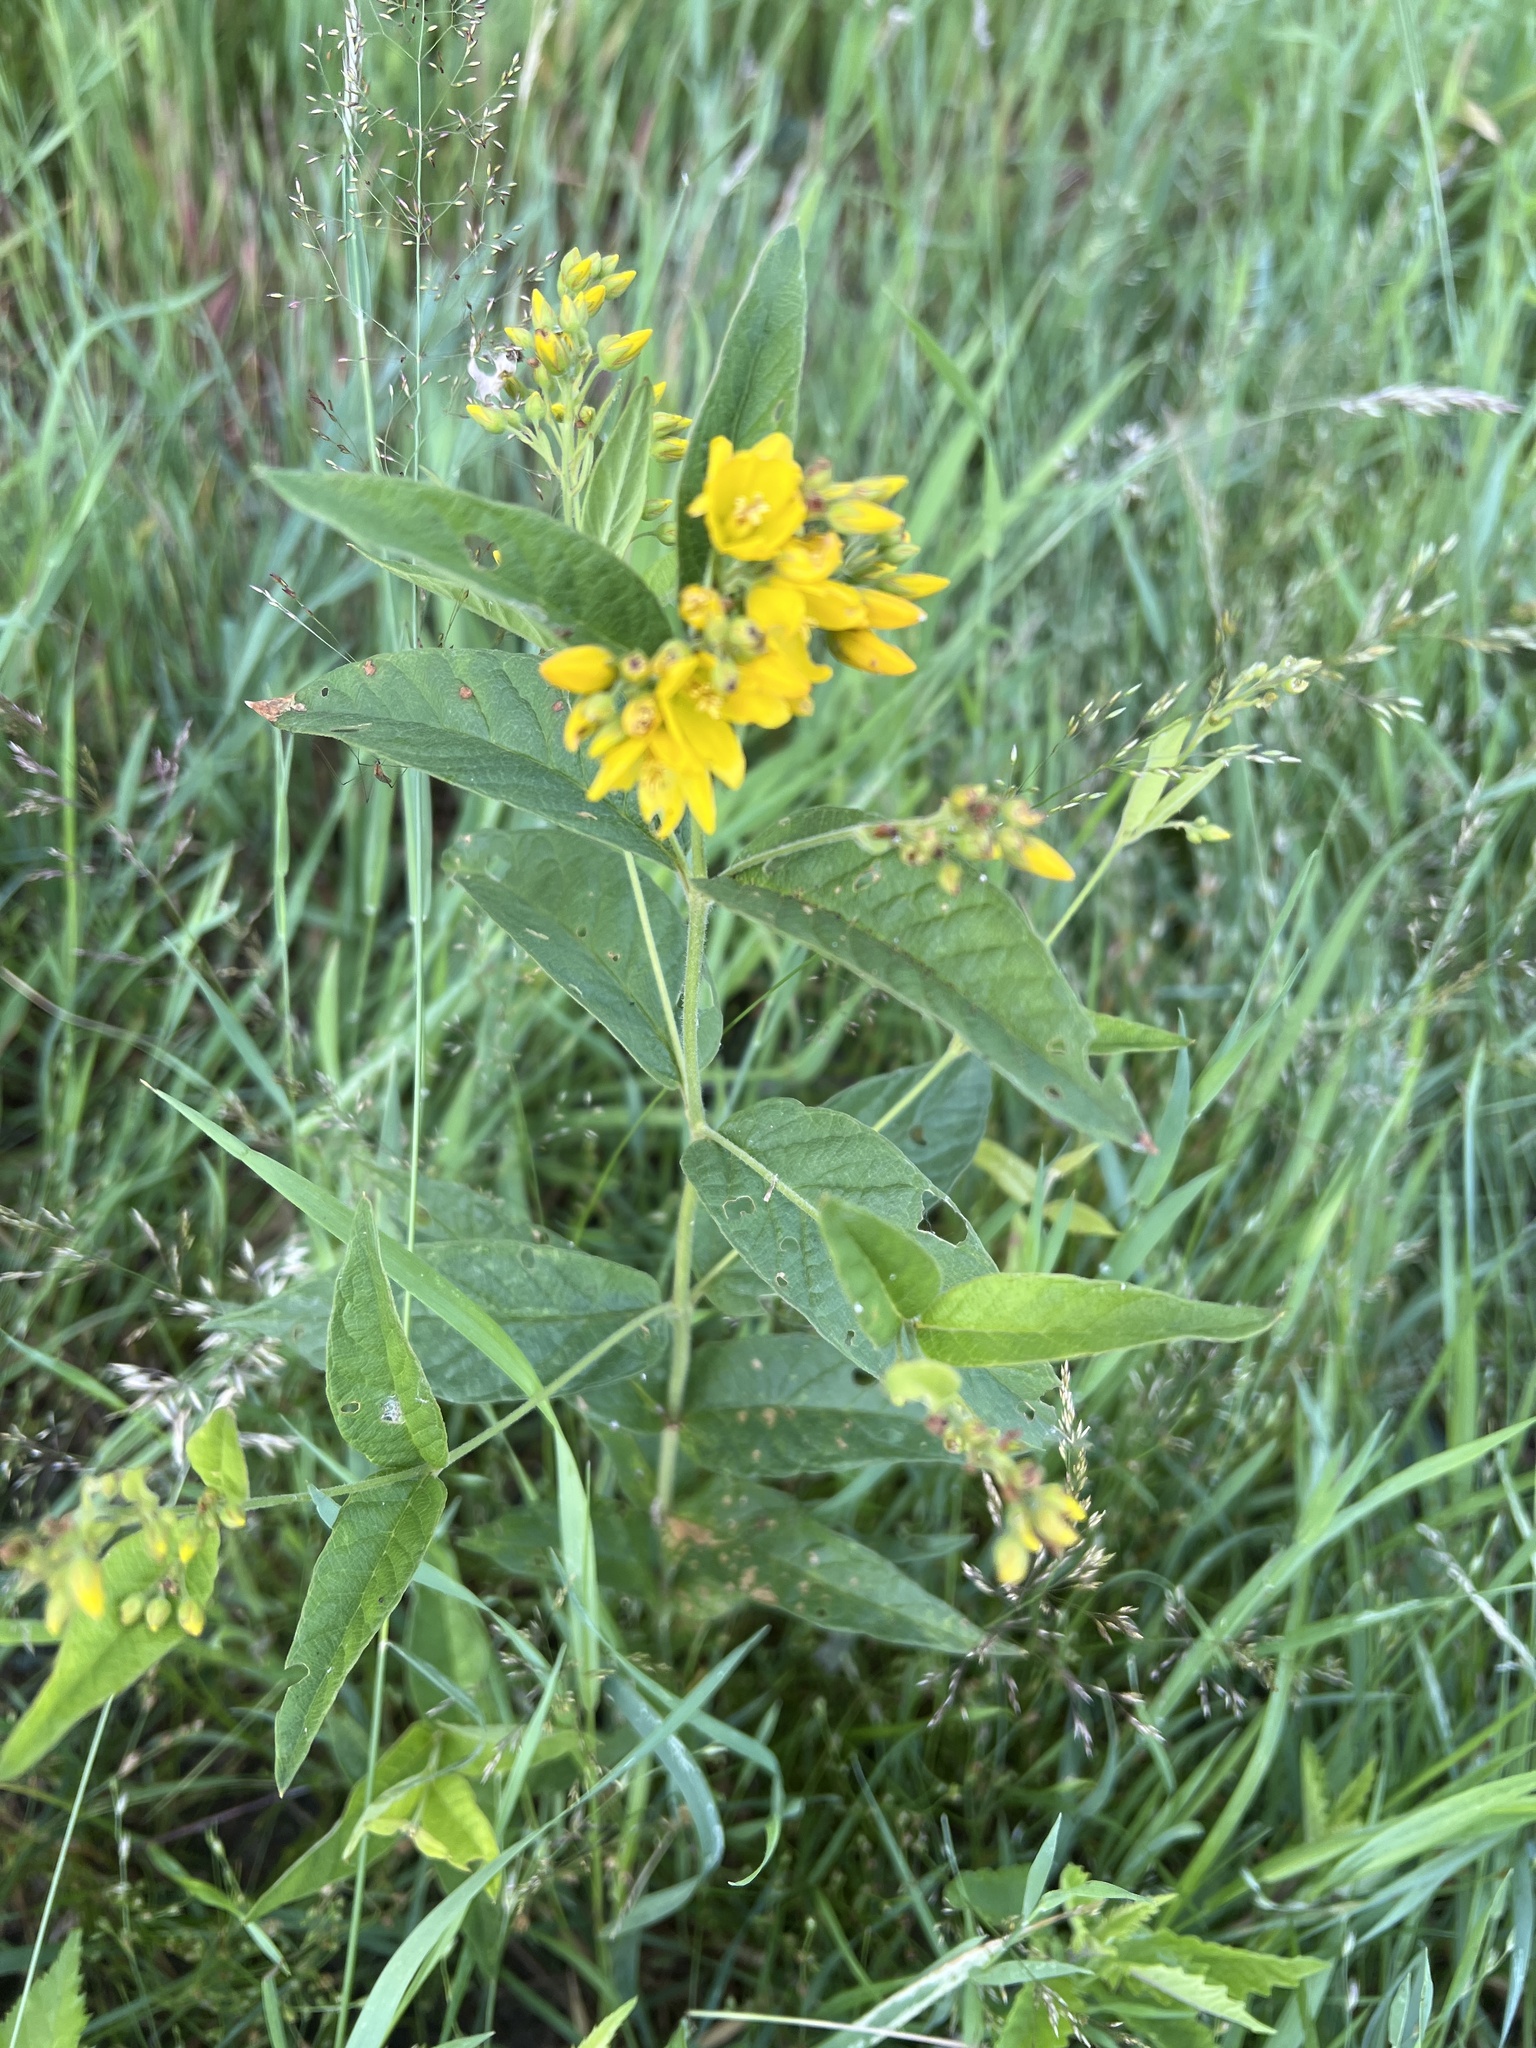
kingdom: Plantae
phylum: Tracheophyta
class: Magnoliopsida
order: Ericales
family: Primulaceae
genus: Lysimachia
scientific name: Lysimachia vulgaris
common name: Yellow loosestrife
